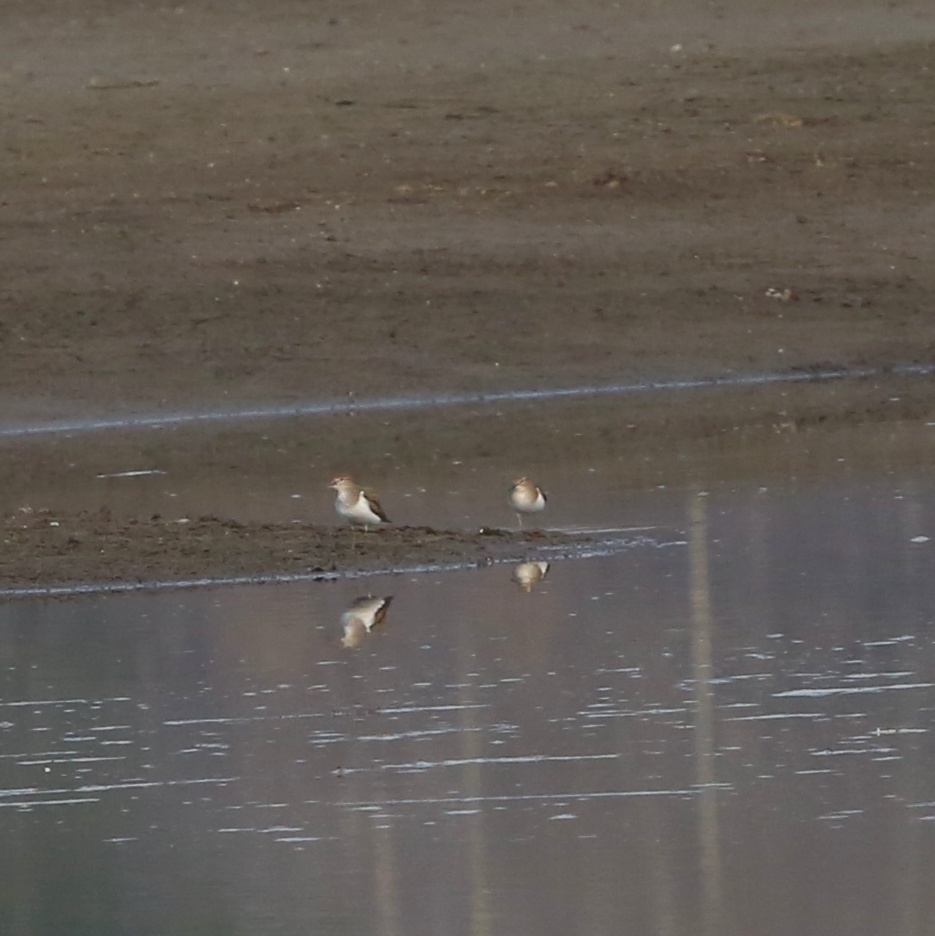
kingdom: Animalia
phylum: Chordata
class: Aves
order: Charadriiformes
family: Scolopacidae
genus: Actitis
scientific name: Actitis hypoleucos
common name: Common sandpiper
